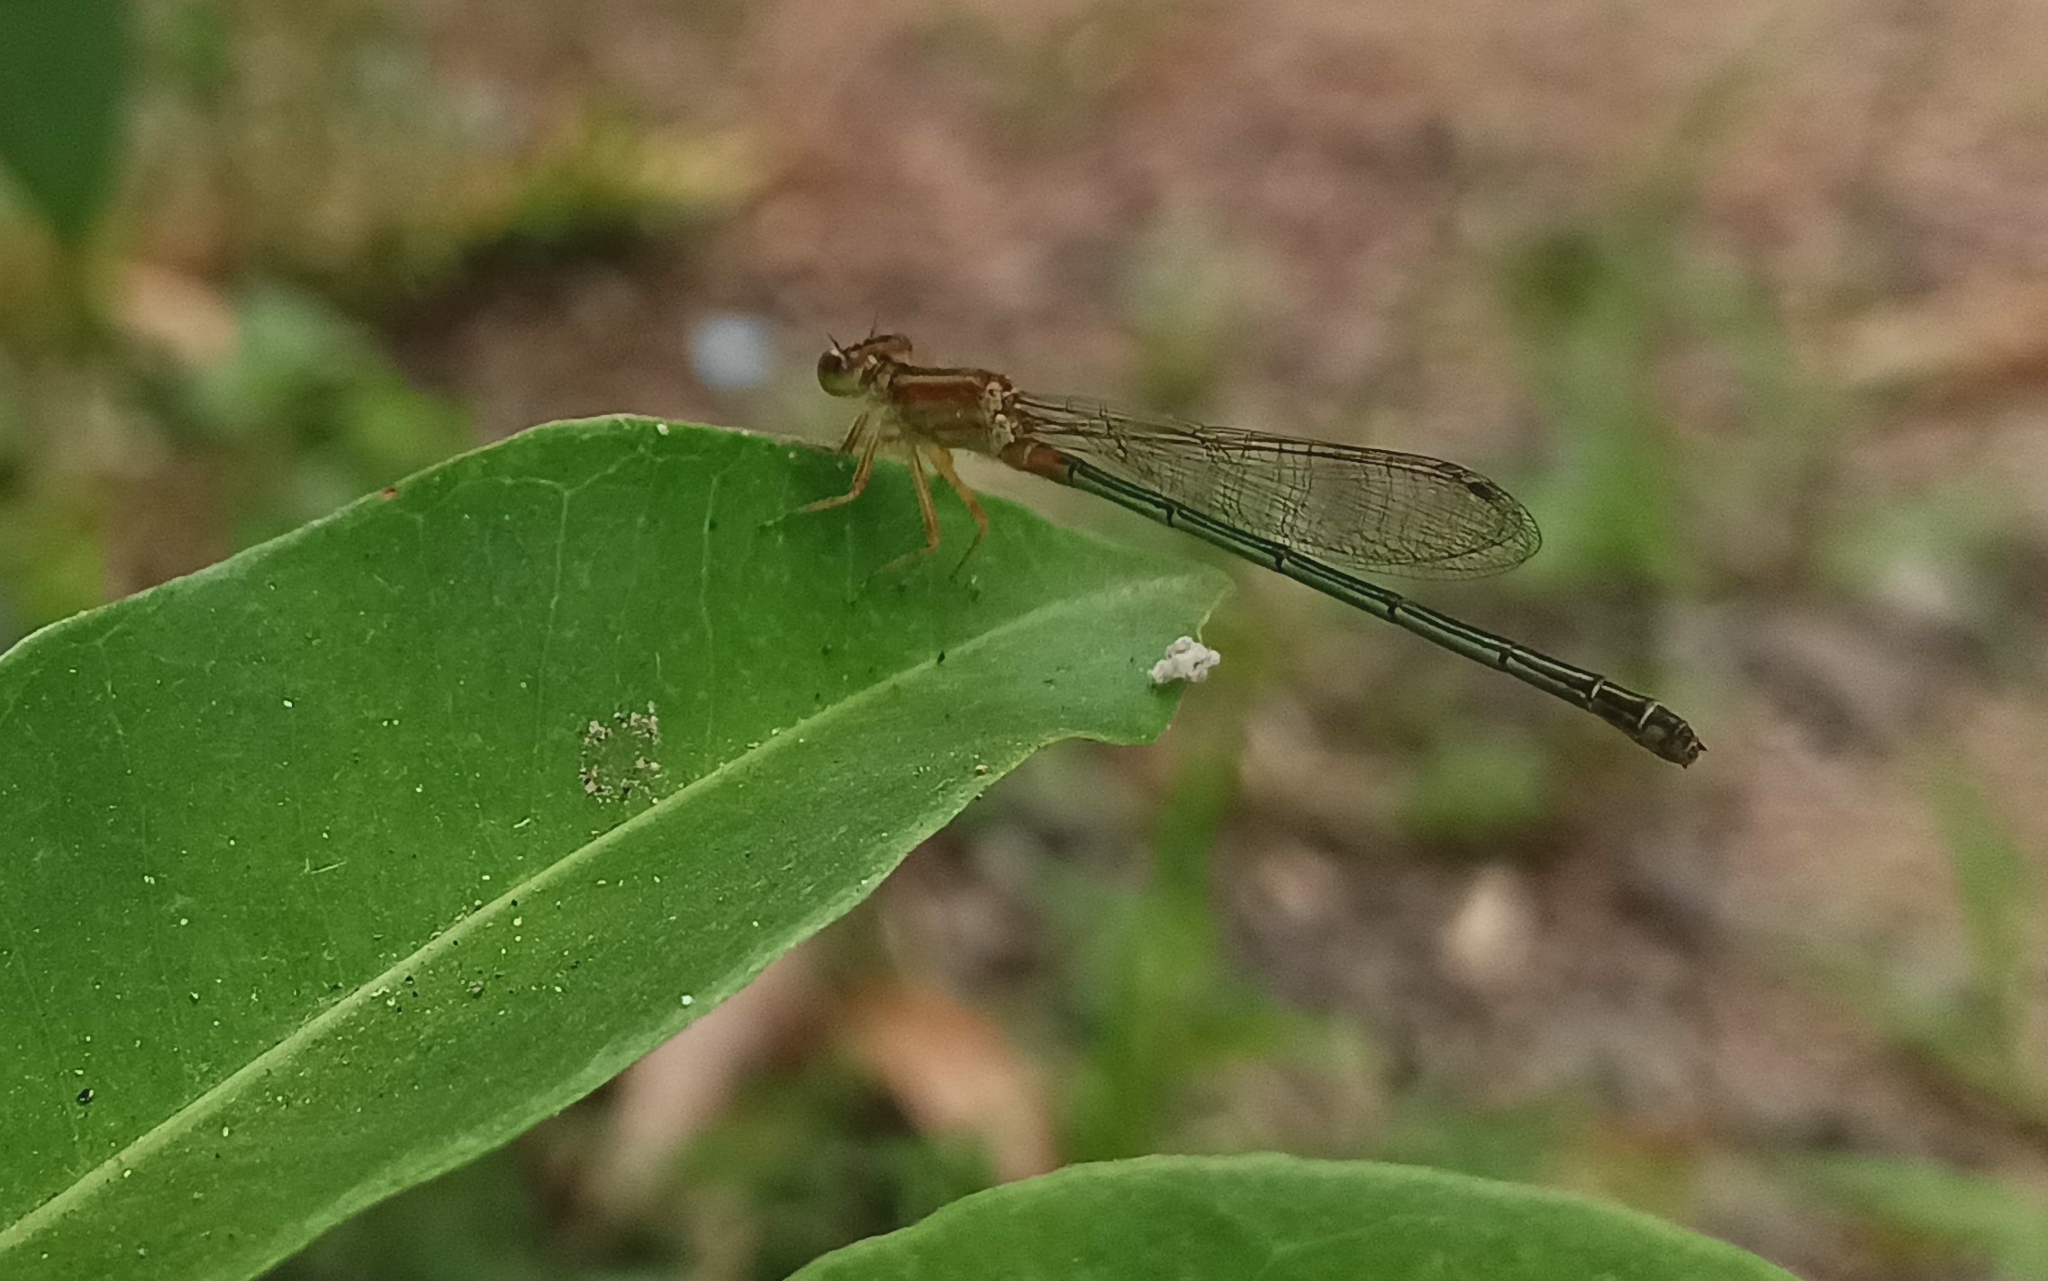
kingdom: Animalia
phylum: Arthropoda
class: Insecta
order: Odonata
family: Coenagrionidae
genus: Ischnura
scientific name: Ischnura senegalensis
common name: Tropical bluetail
